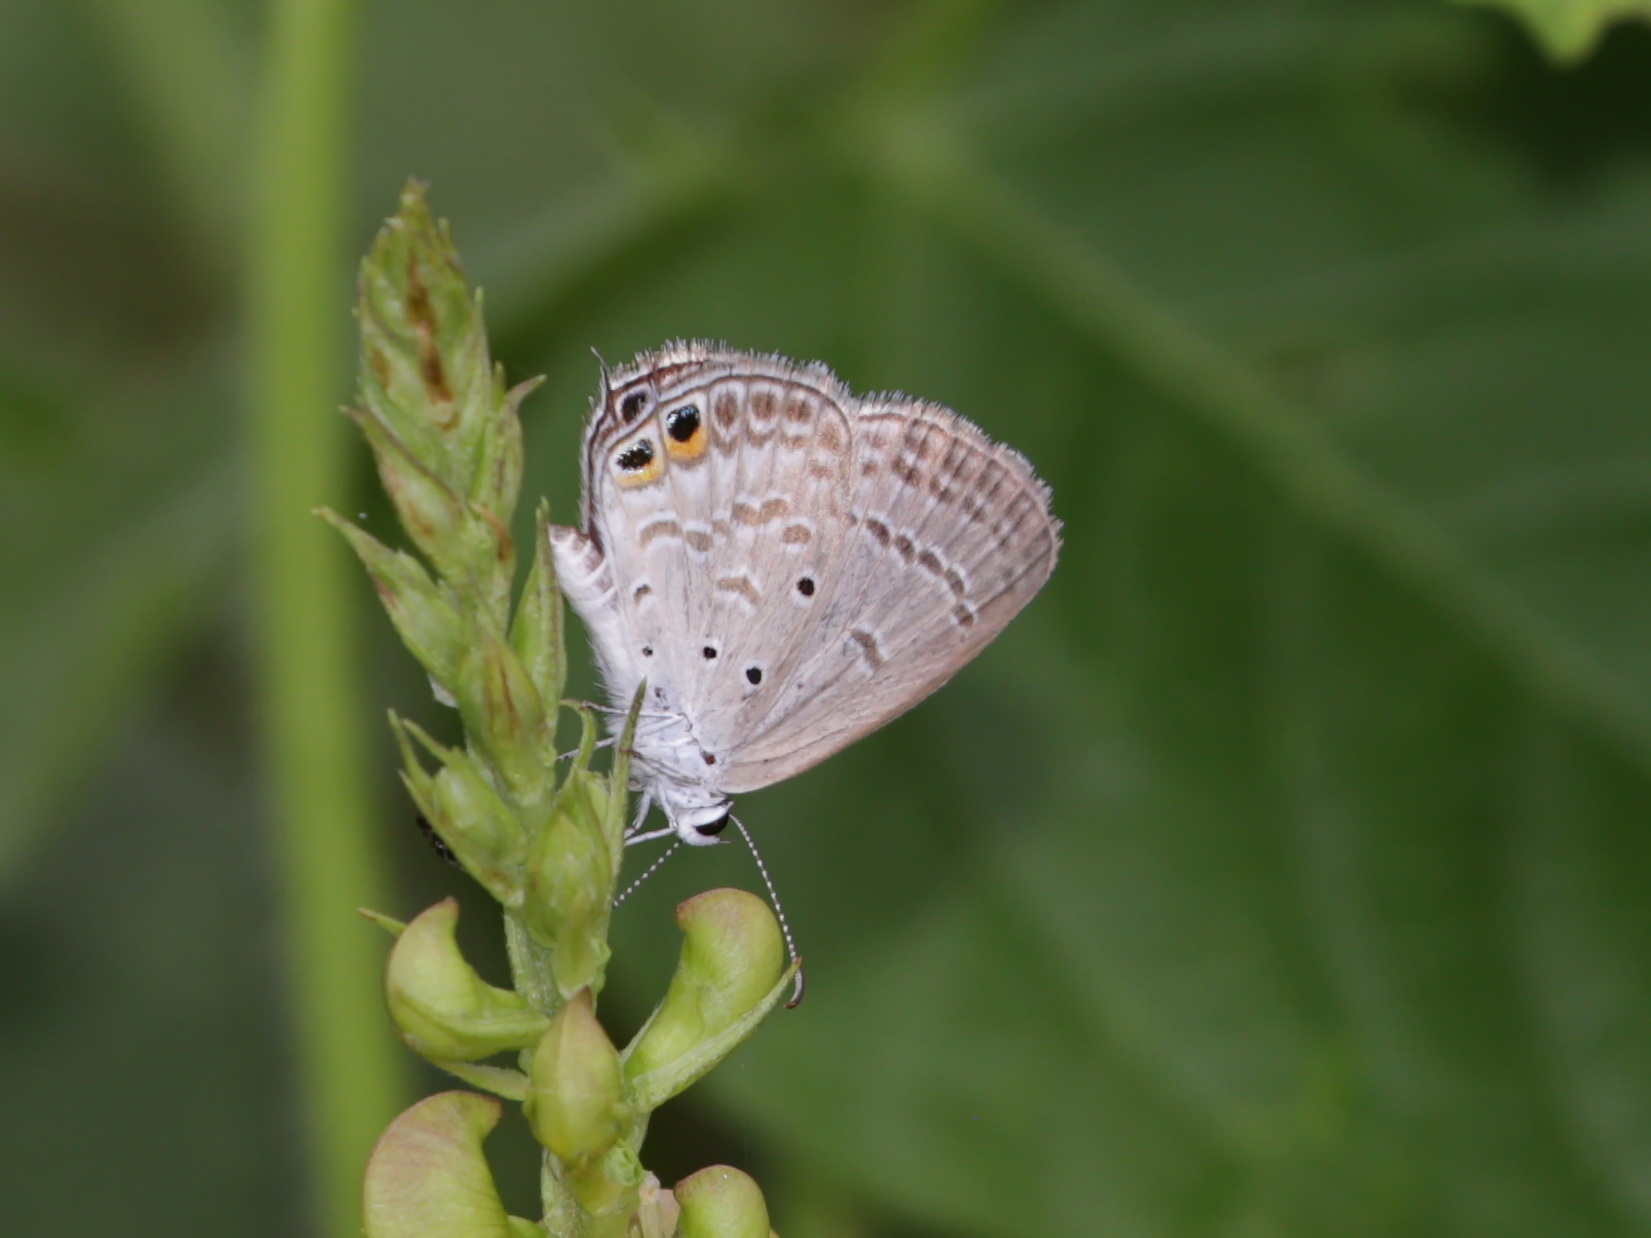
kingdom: Animalia
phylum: Arthropoda
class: Insecta
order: Lepidoptera
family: Lycaenidae
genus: Euchrysops
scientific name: Euchrysops cnejus
